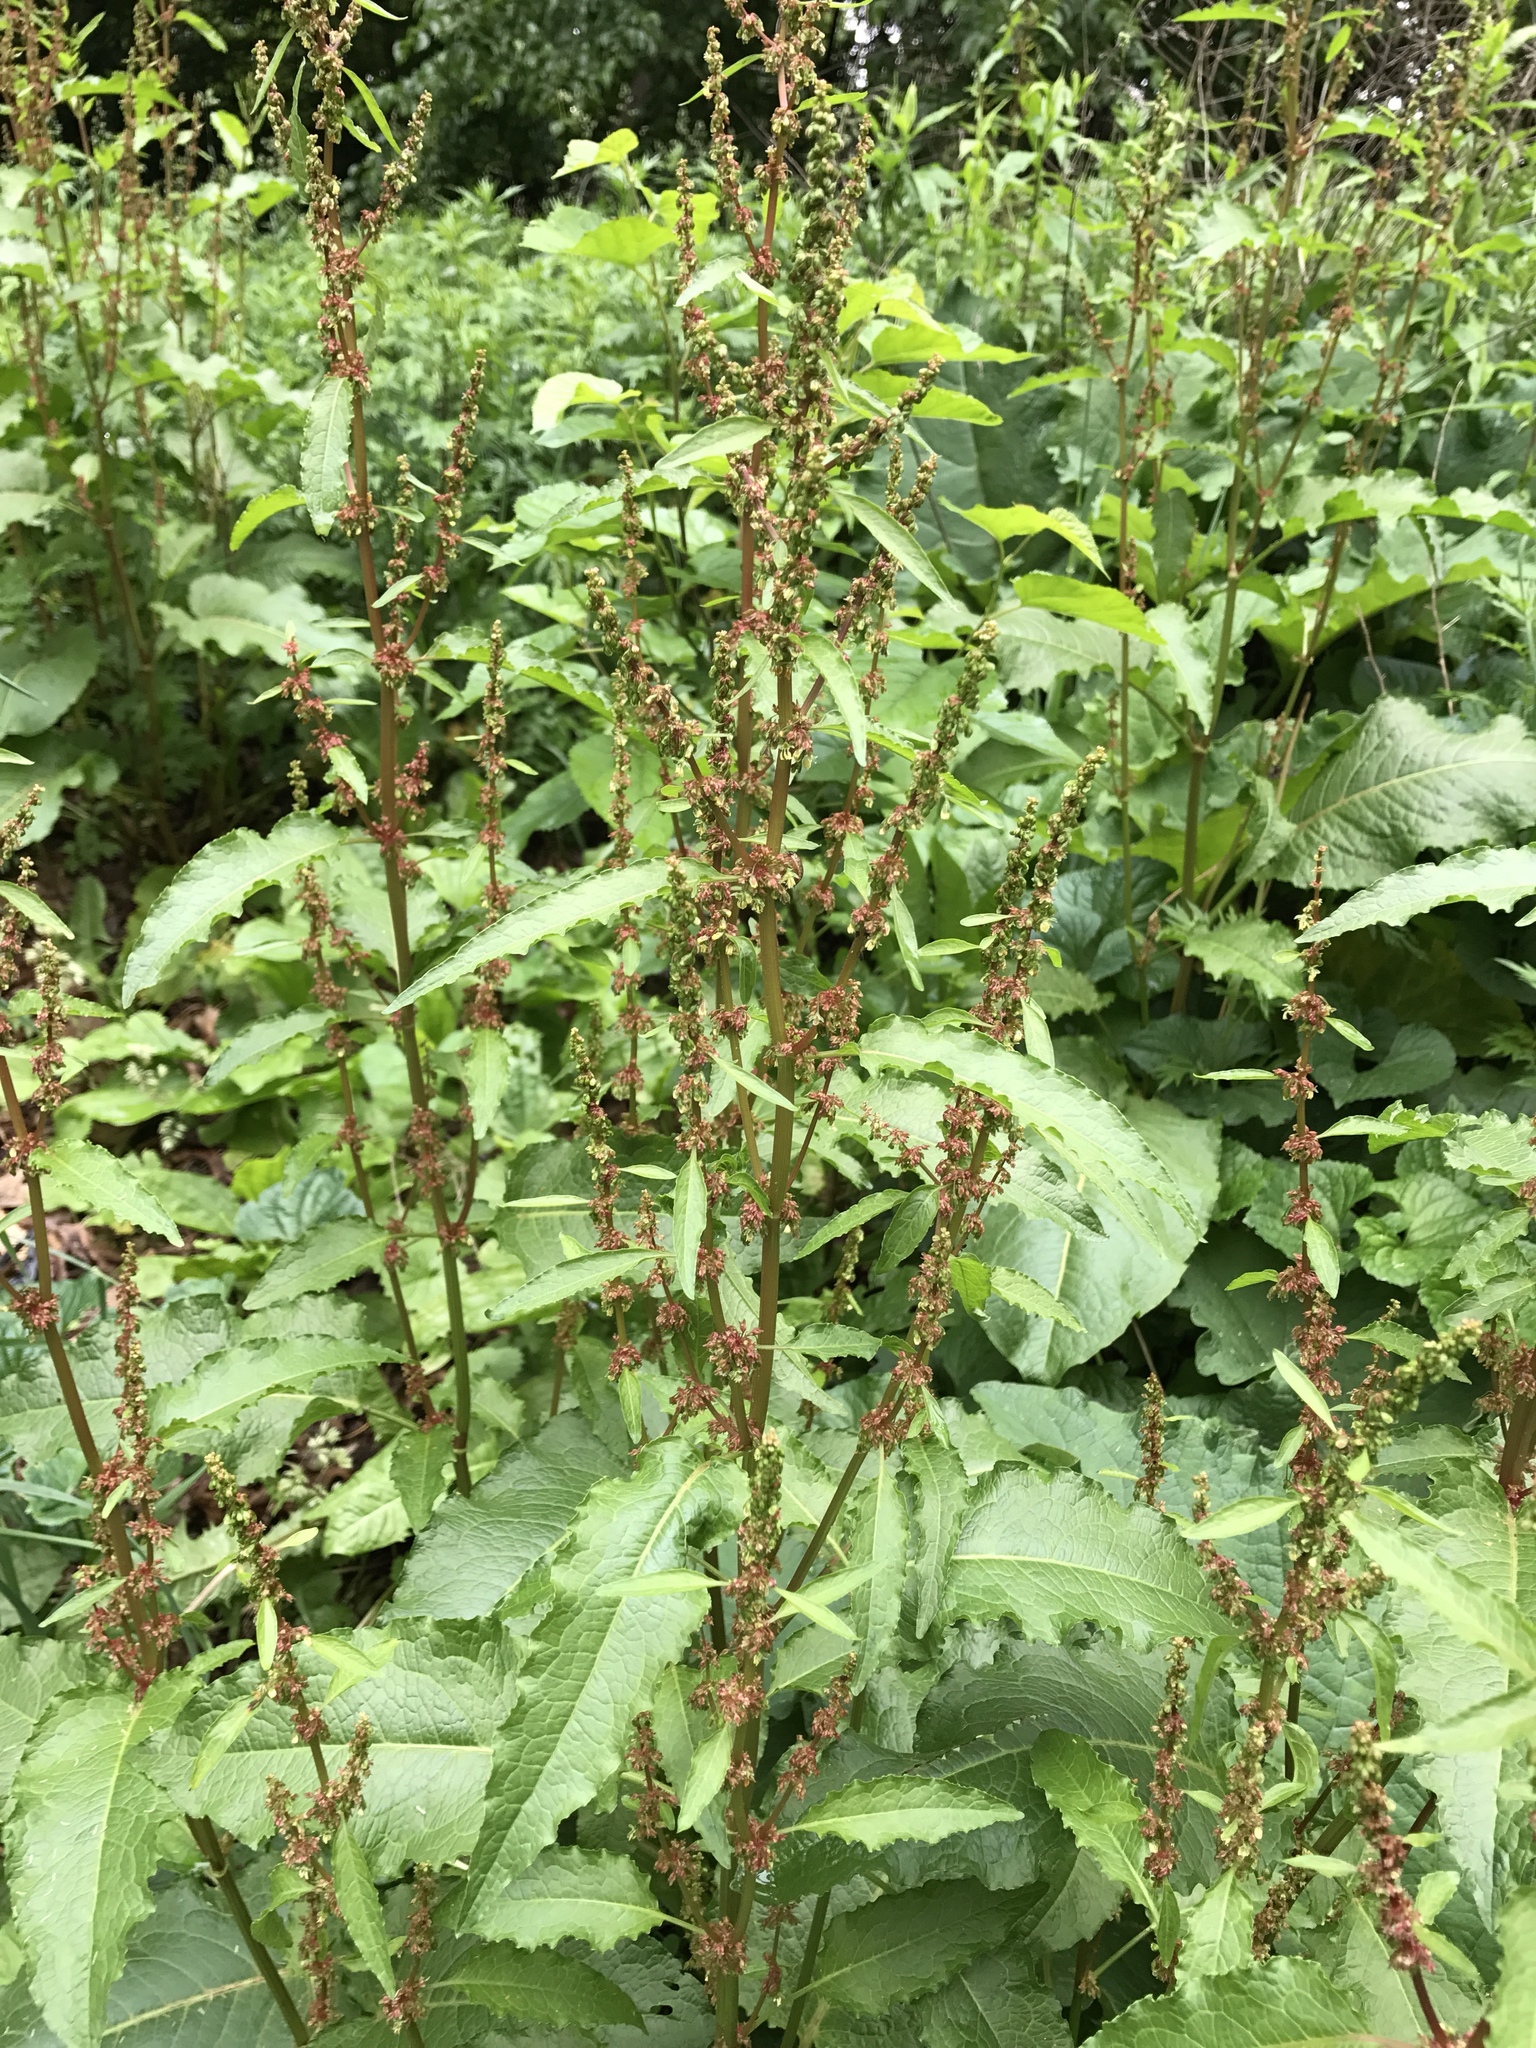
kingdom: Plantae
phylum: Tracheophyta
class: Magnoliopsida
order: Caryophyllales
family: Polygonaceae
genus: Rumex
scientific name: Rumex crispus
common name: Curled dock
